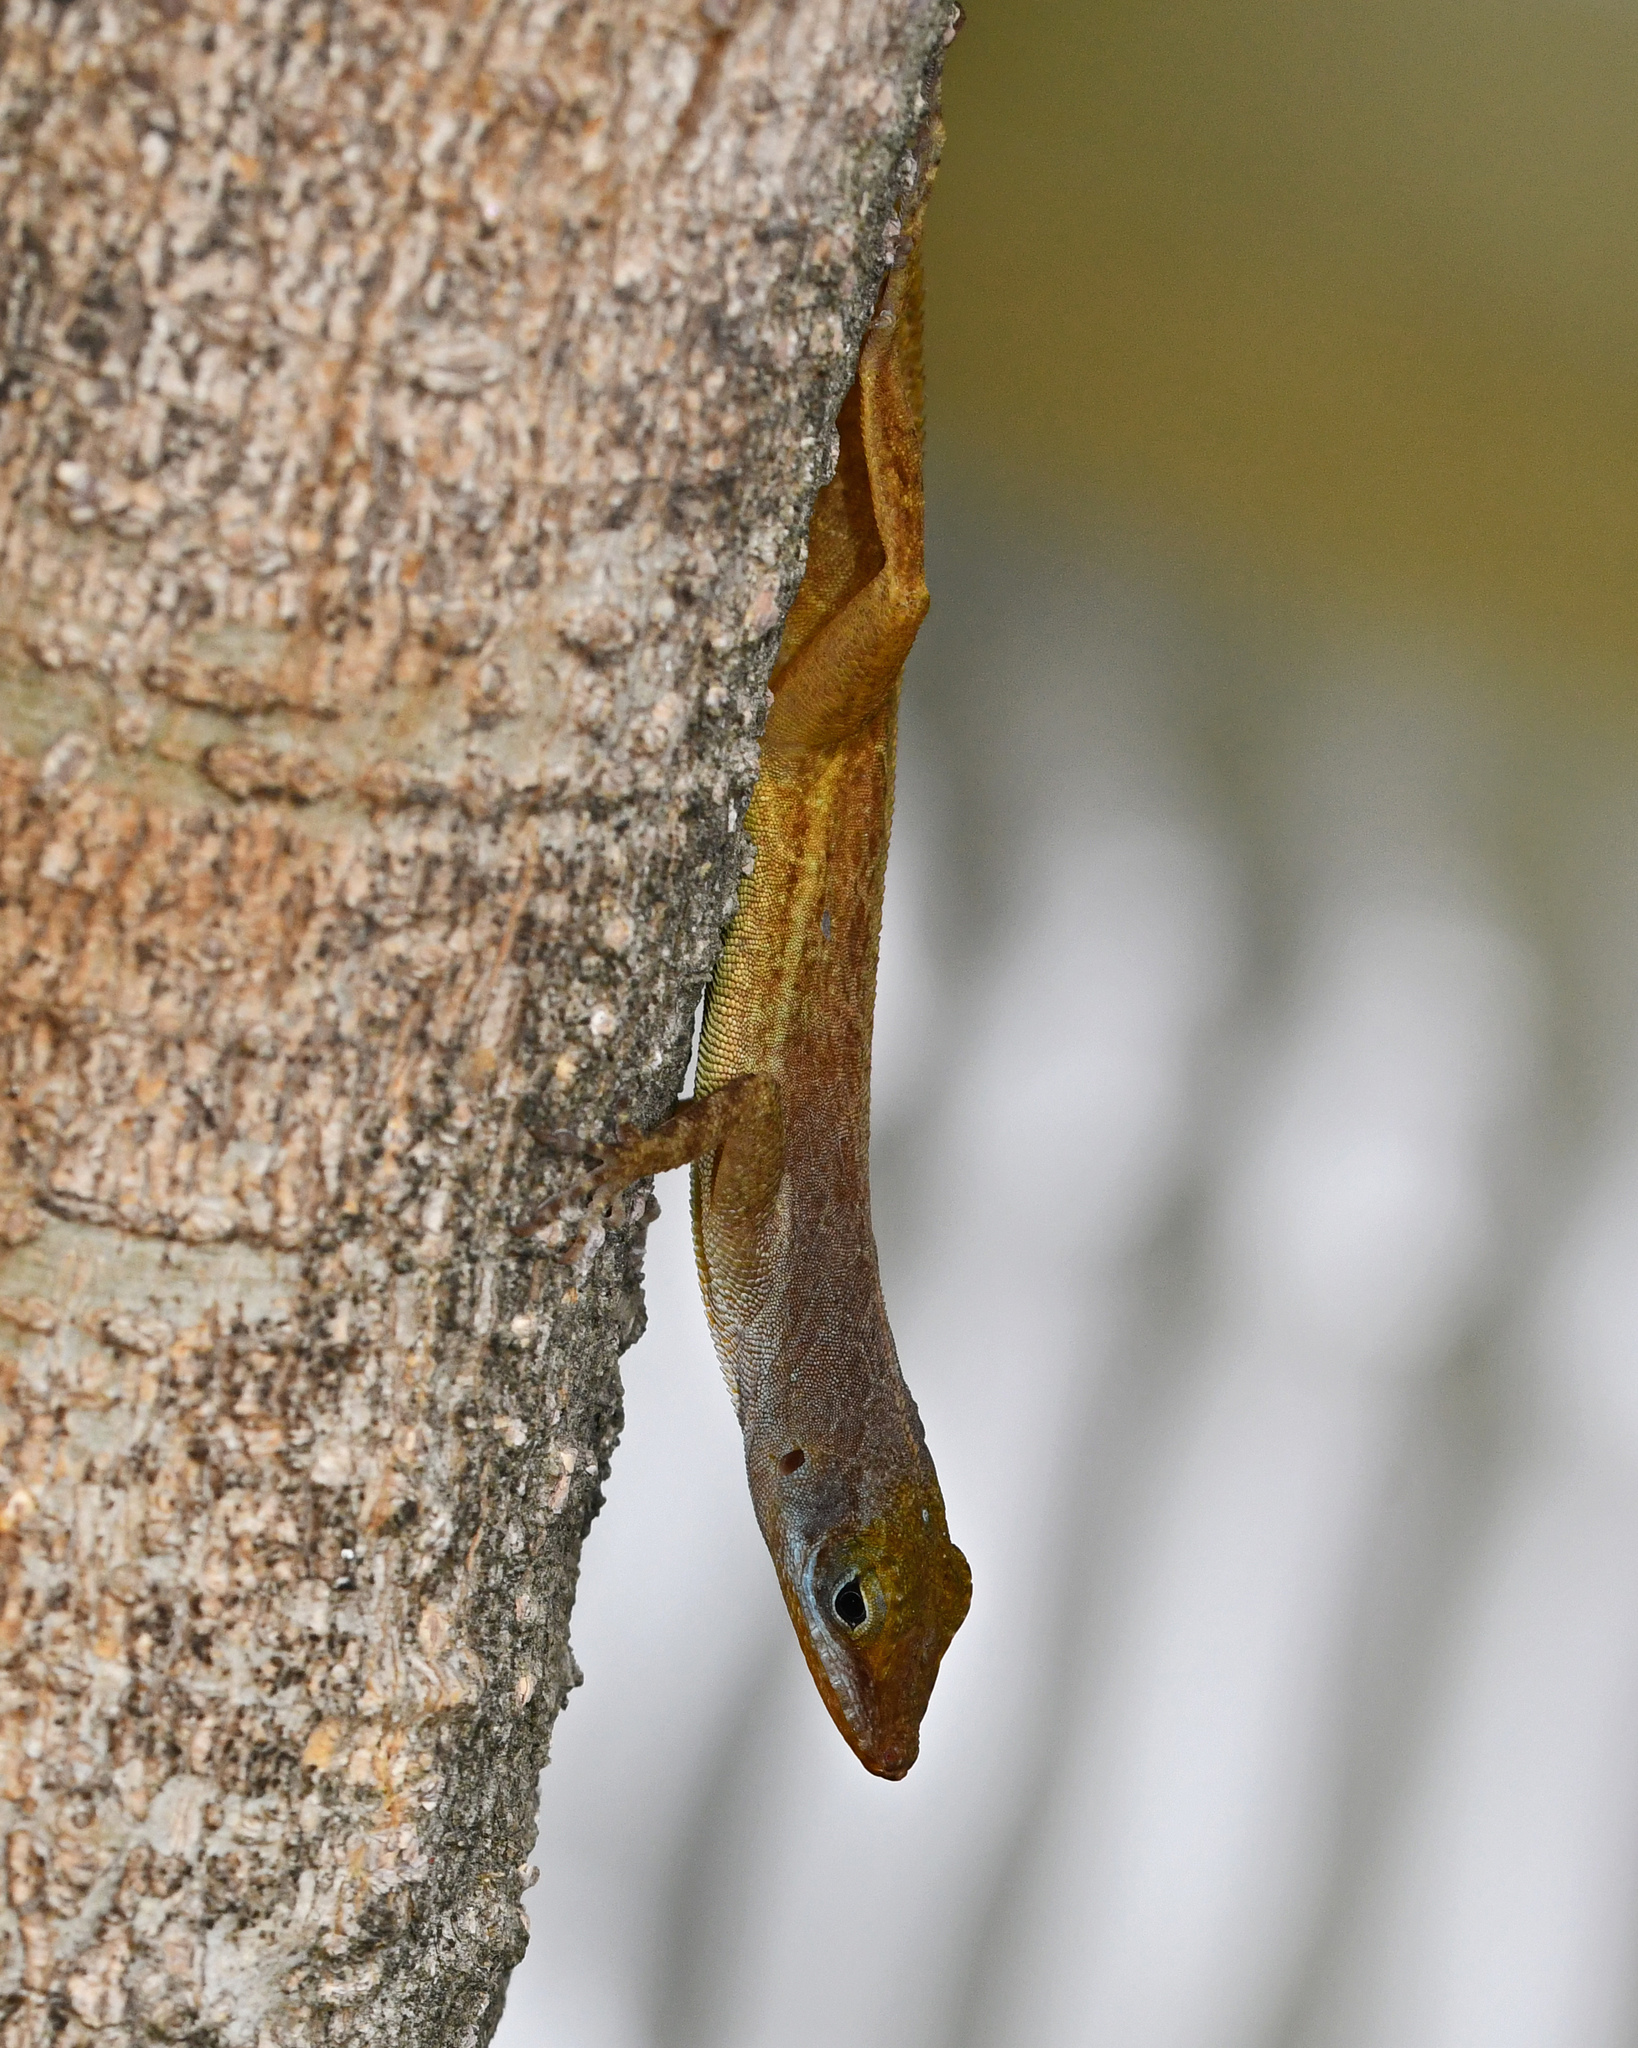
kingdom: Animalia
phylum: Chordata
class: Squamata
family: Dactyloidae
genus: Anolis
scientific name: Anolis wattsii
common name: Antigua bank bush anole
